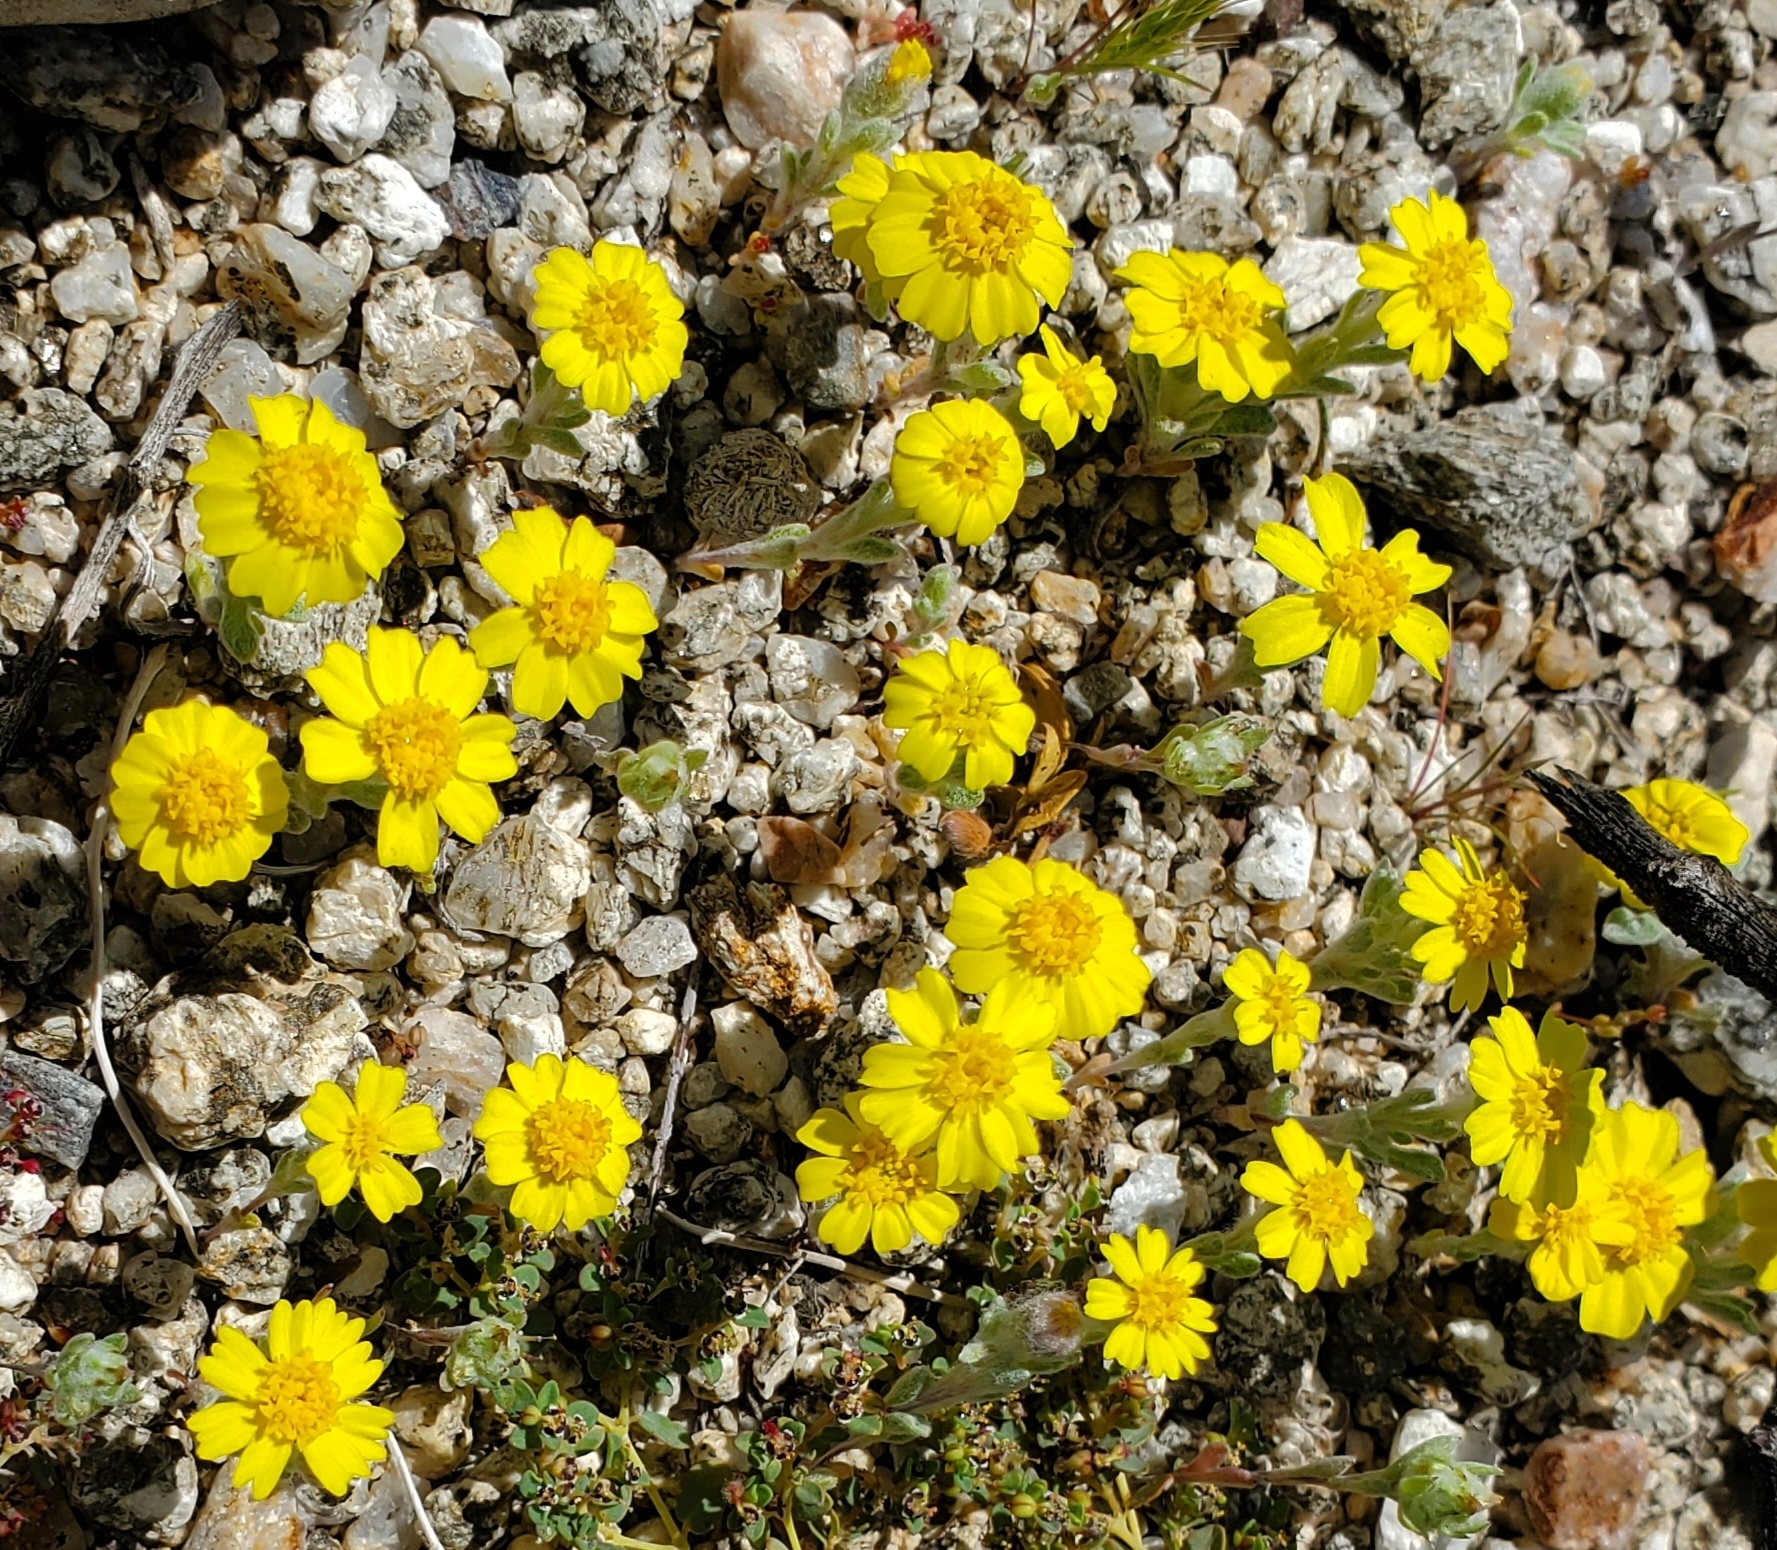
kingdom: Plantae
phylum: Tracheophyta
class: Magnoliopsida
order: Asterales
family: Asteraceae
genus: Eriophyllum
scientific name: Eriophyllum wallacei
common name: Wallace's woolly daisy
